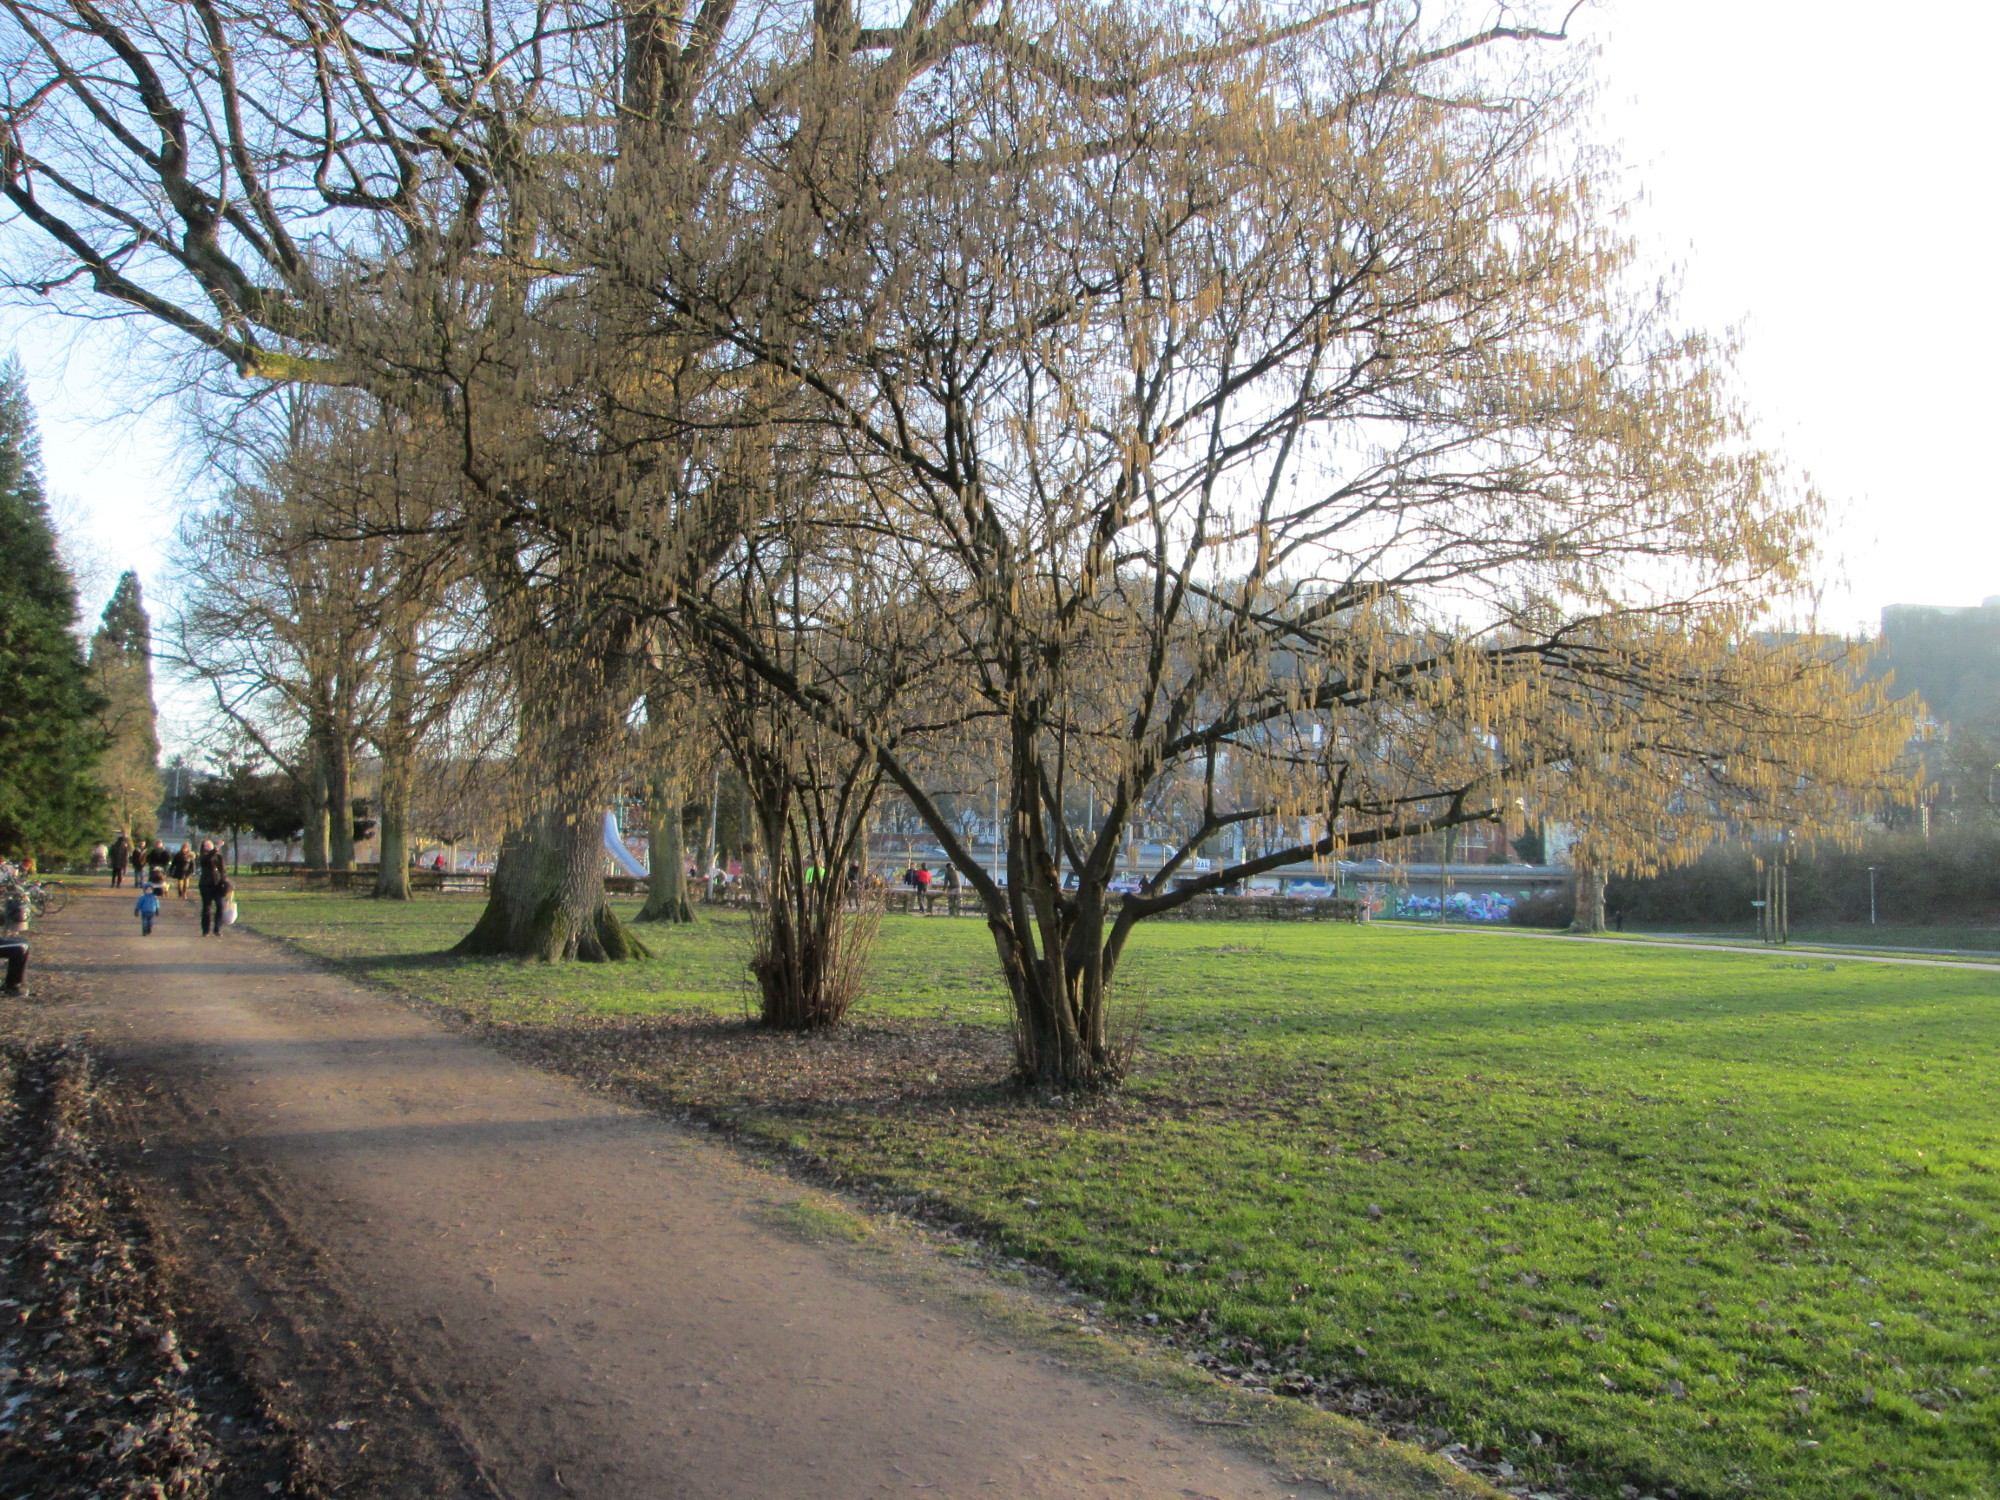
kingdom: Plantae
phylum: Tracheophyta
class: Magnoliopsida
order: Fagales
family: Betulaceae
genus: Corylus
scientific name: Corylus avellana
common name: European hazel
